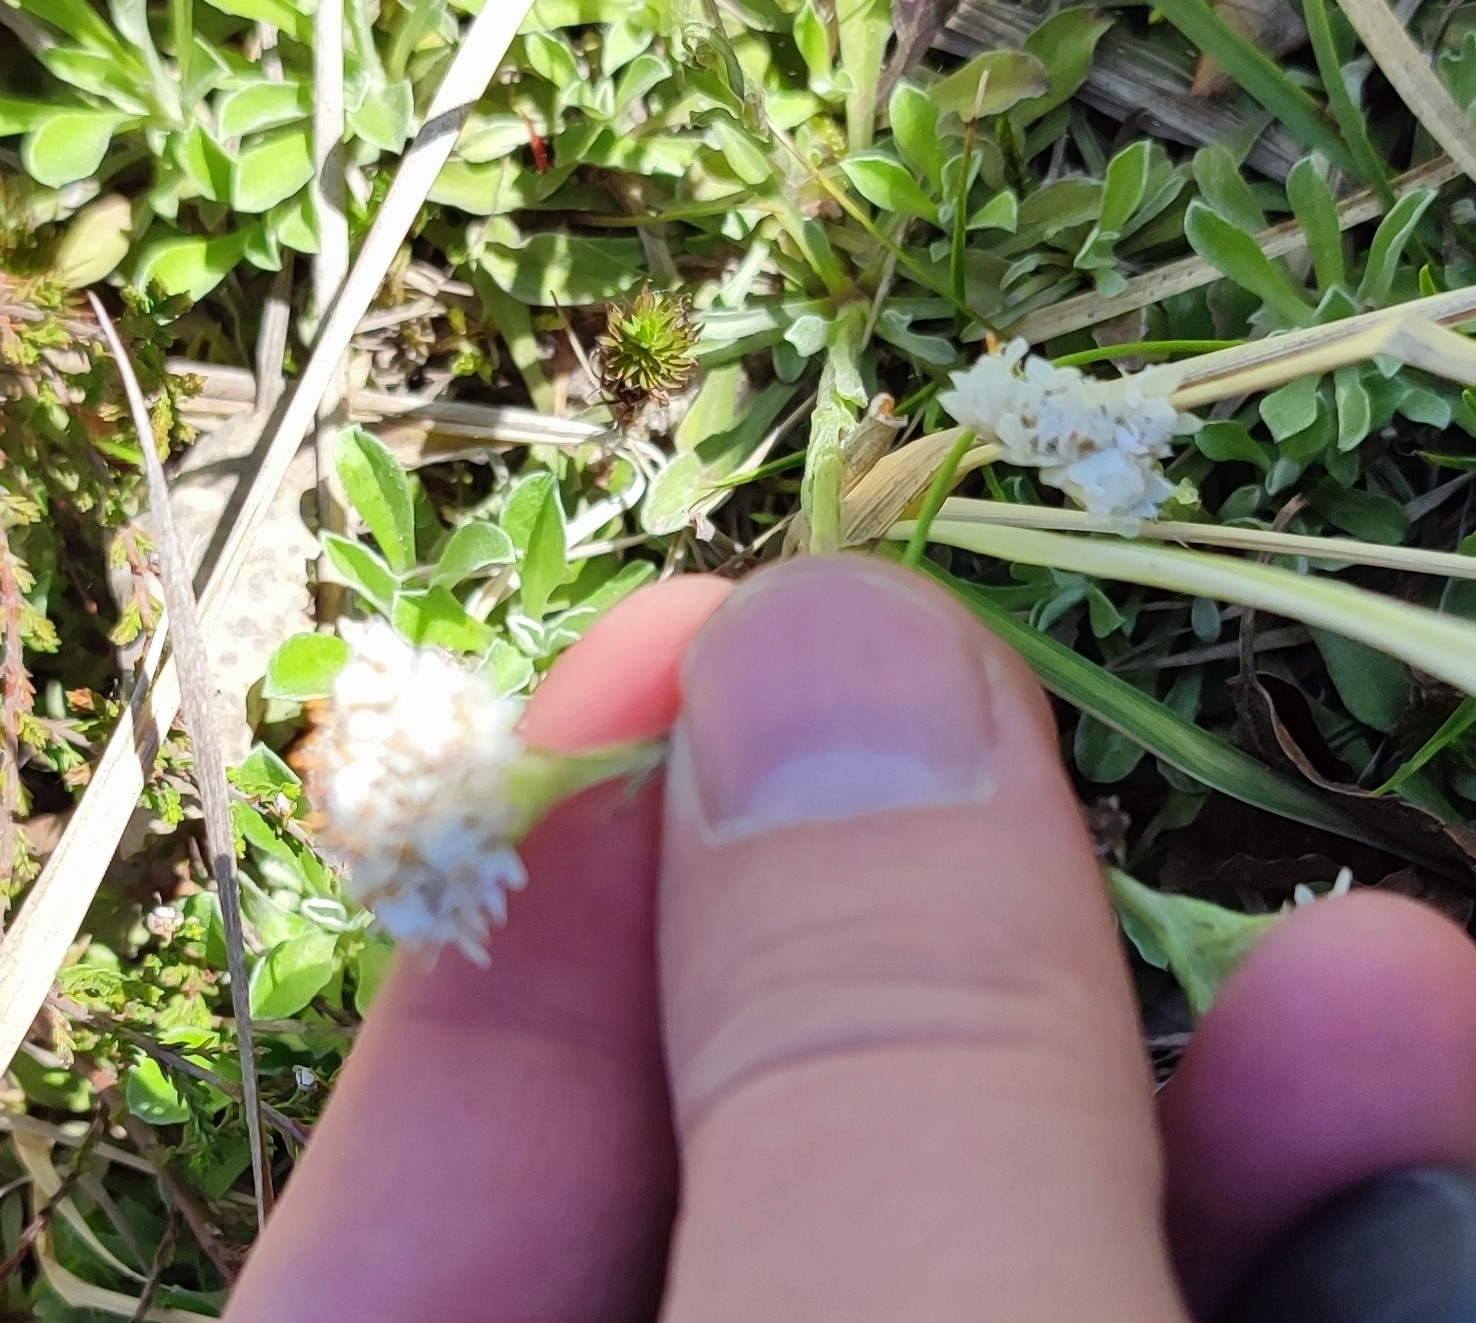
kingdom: Plantae
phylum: Tracheophyta
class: Magnoliopsida
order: Asterales
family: Asteraceae
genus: Antennaria
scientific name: Antennaria dioica
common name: Mountain everlasting
